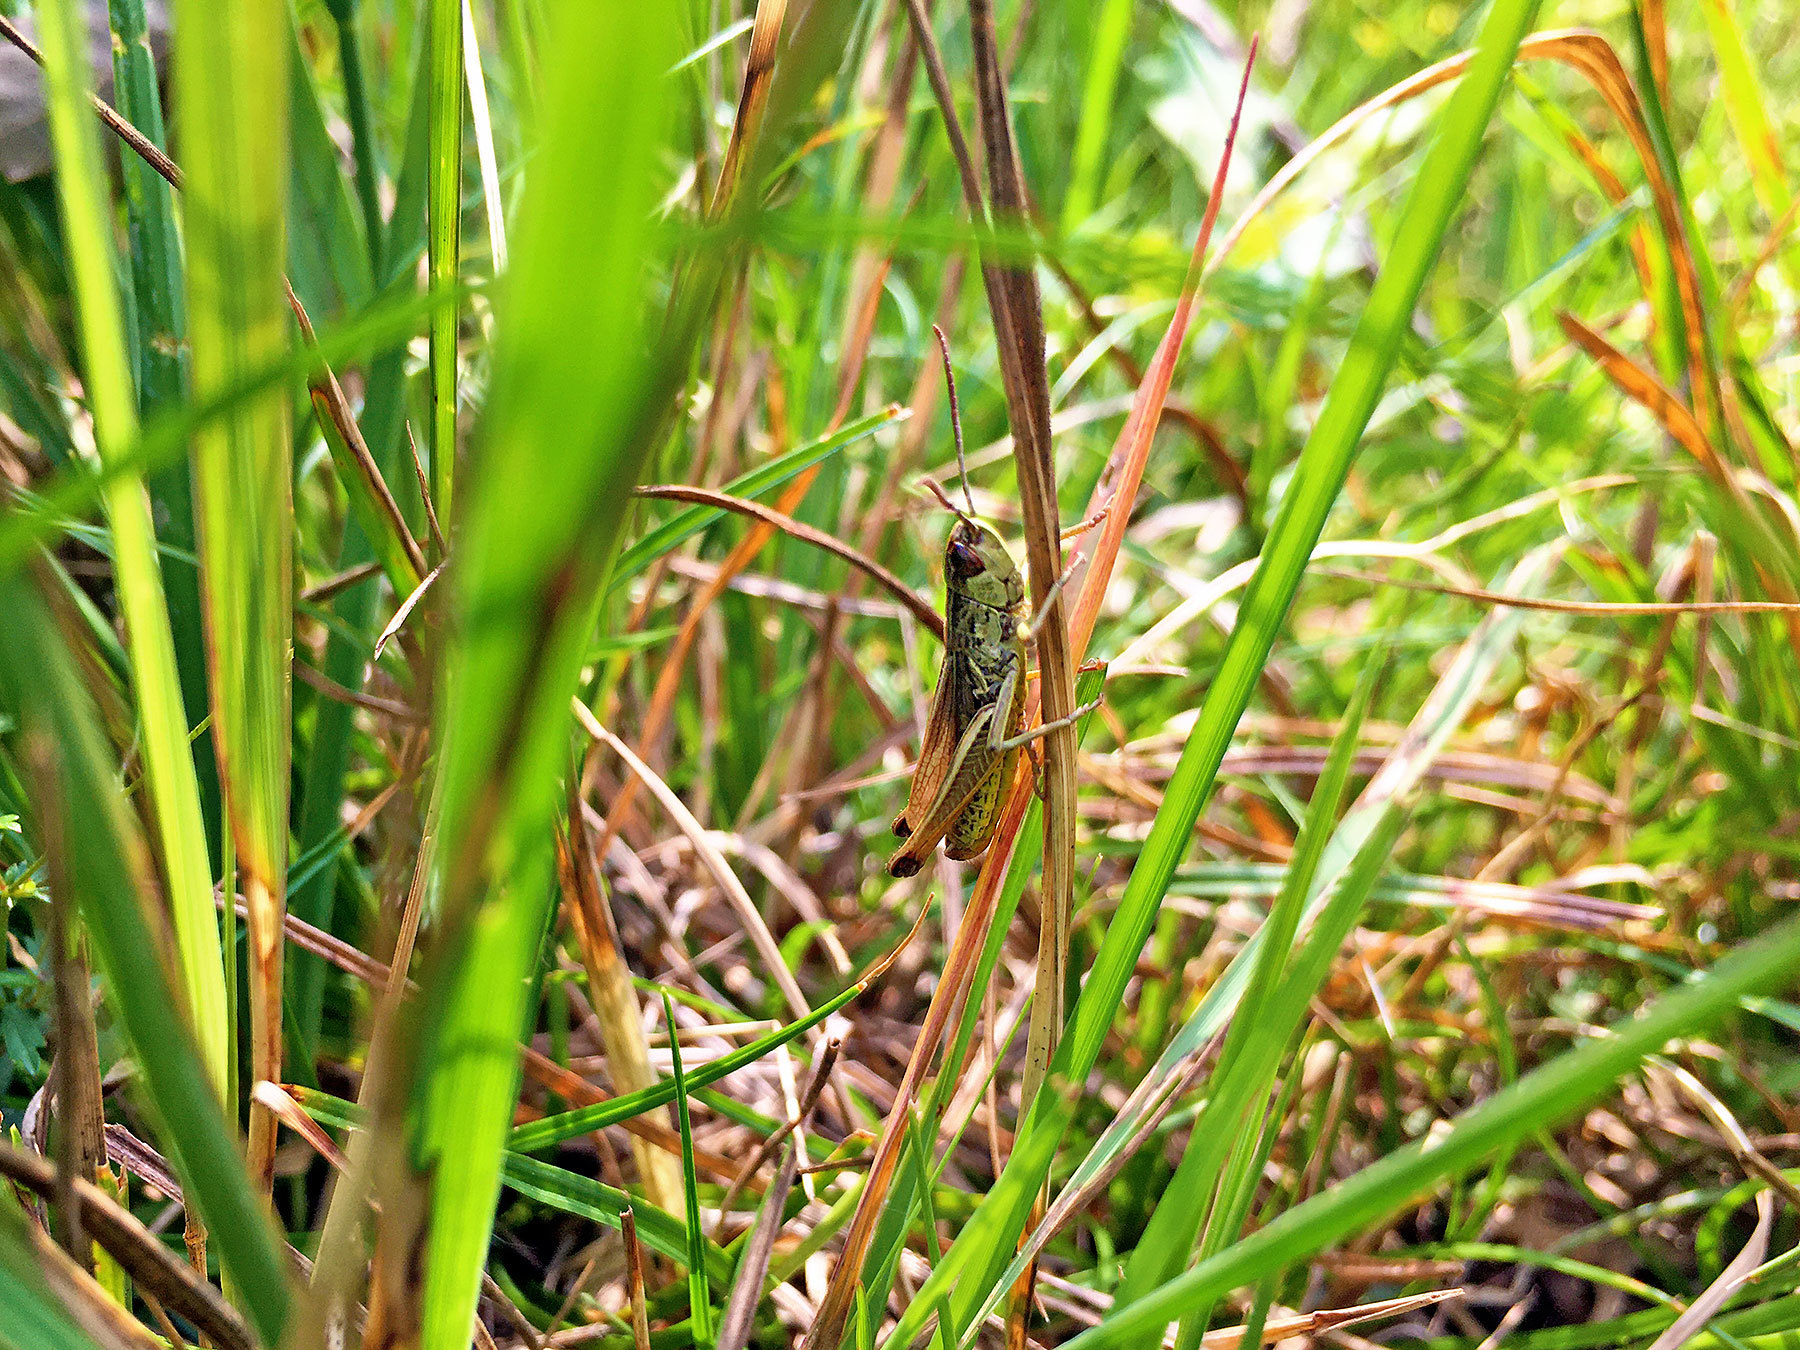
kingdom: Animalia
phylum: Arthropoda
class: Insecta
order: Orthoptera
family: Acrididae
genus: Pseudochorthippus
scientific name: Pseudochorthippus parallelus
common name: Meadow grasshopper
